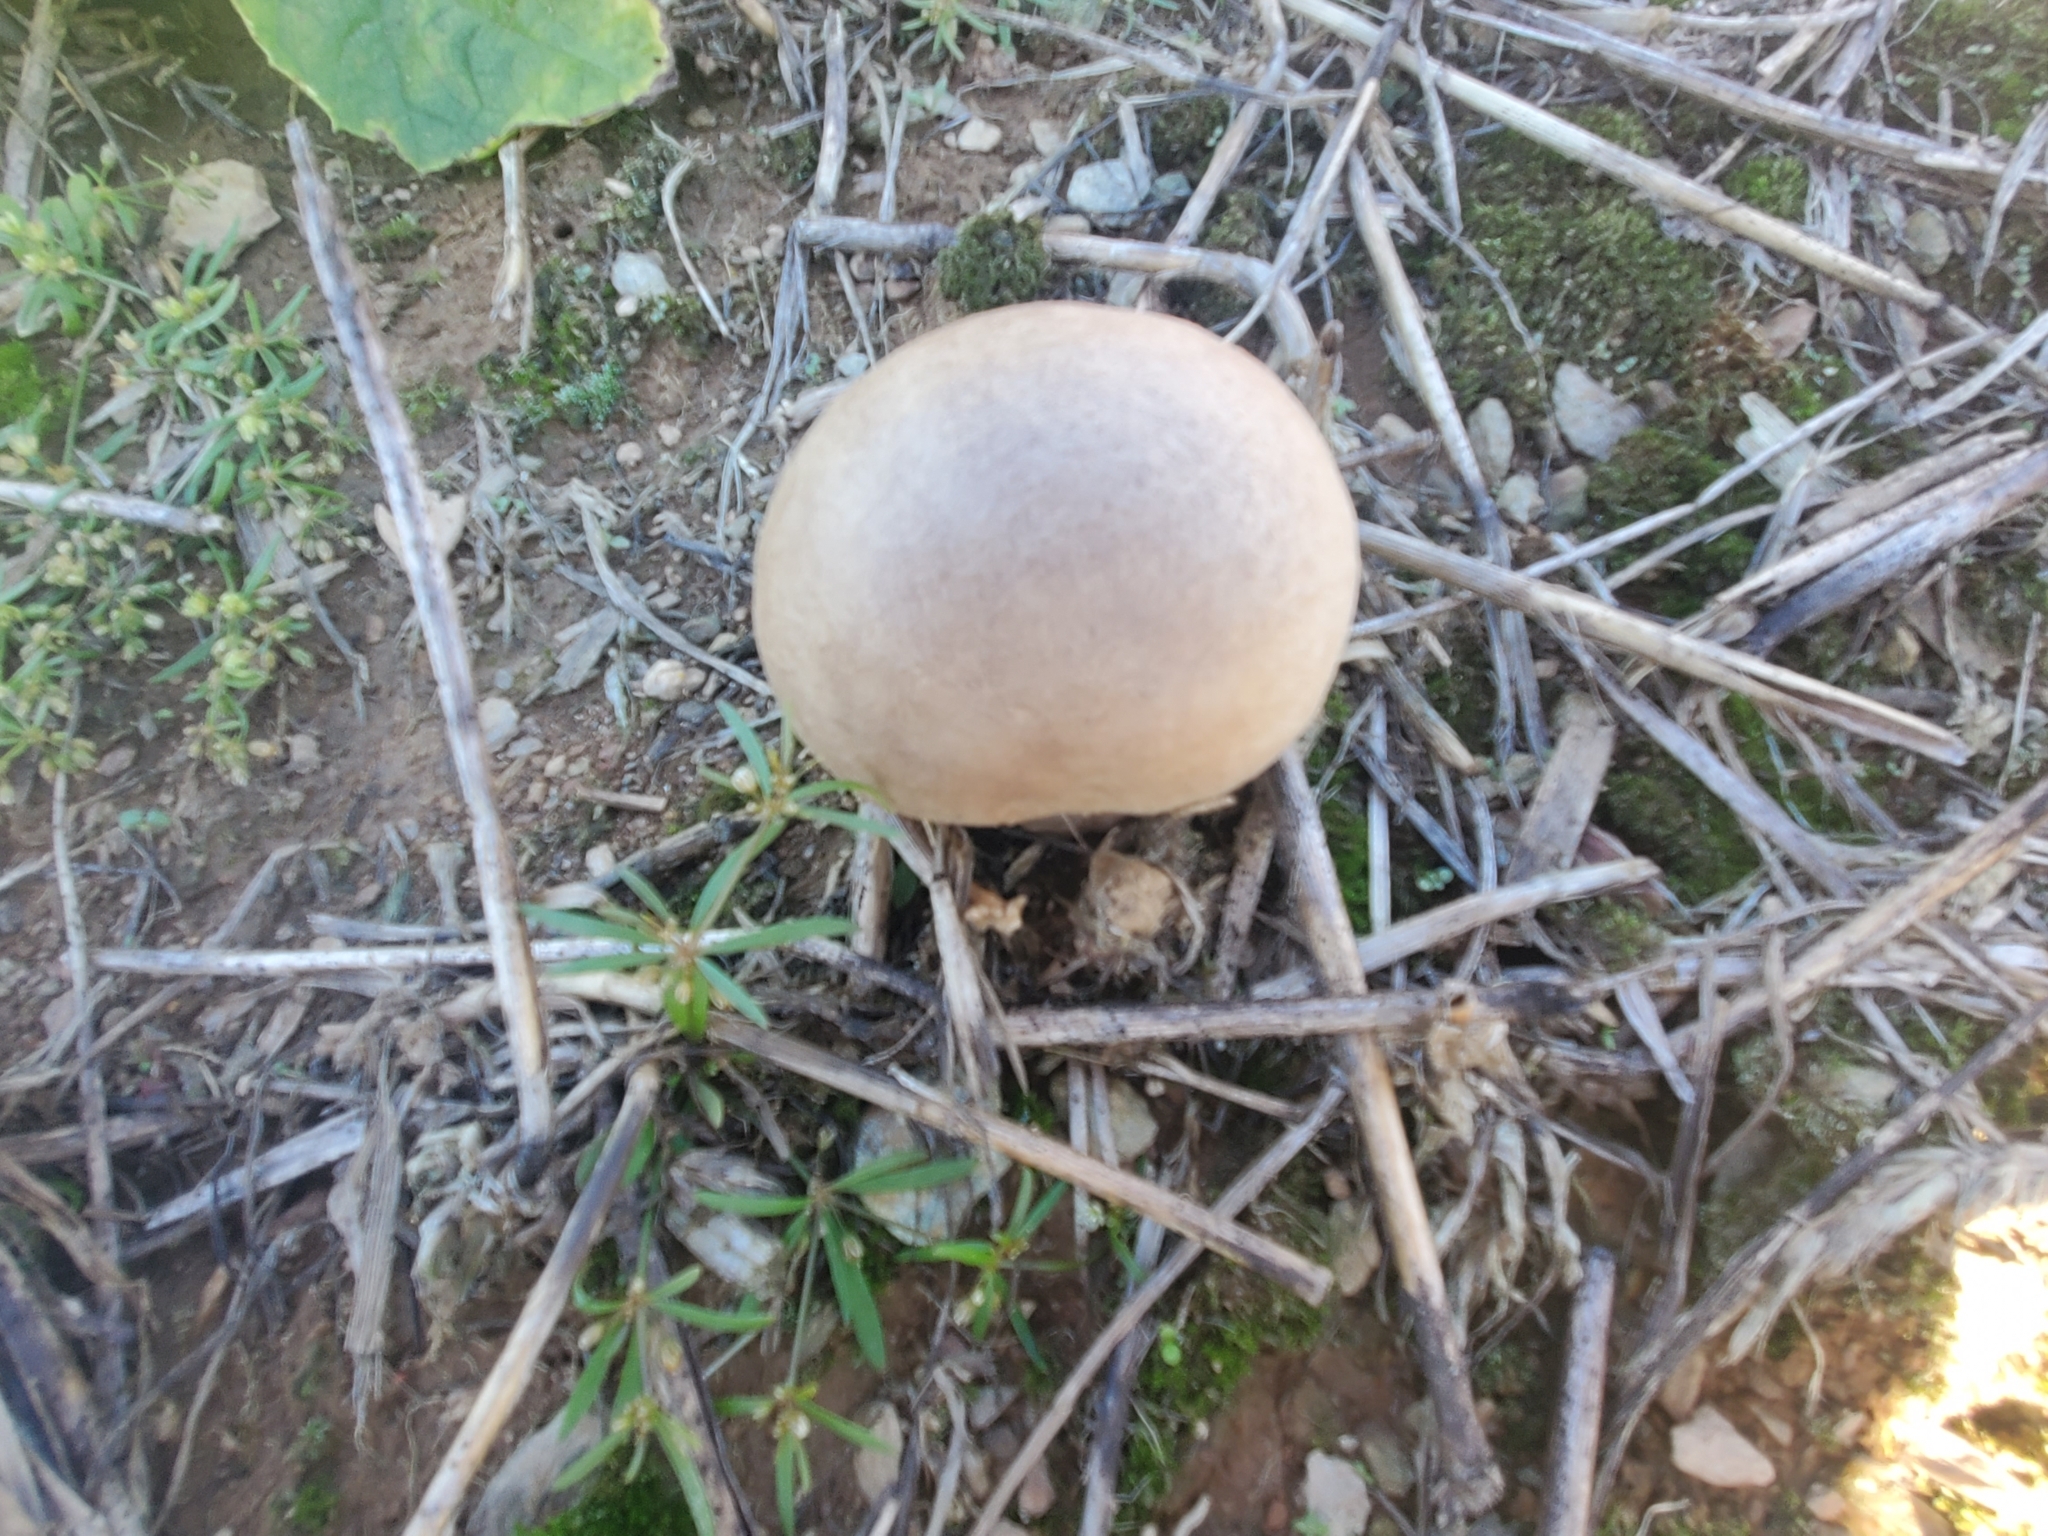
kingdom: Fungi
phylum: Basidiomycota
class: Agaricomycetes
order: Agaricales
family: Lycoperdaceae
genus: Calvatia
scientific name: Calvatia cyathiformis
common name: Purple-spored puffball
